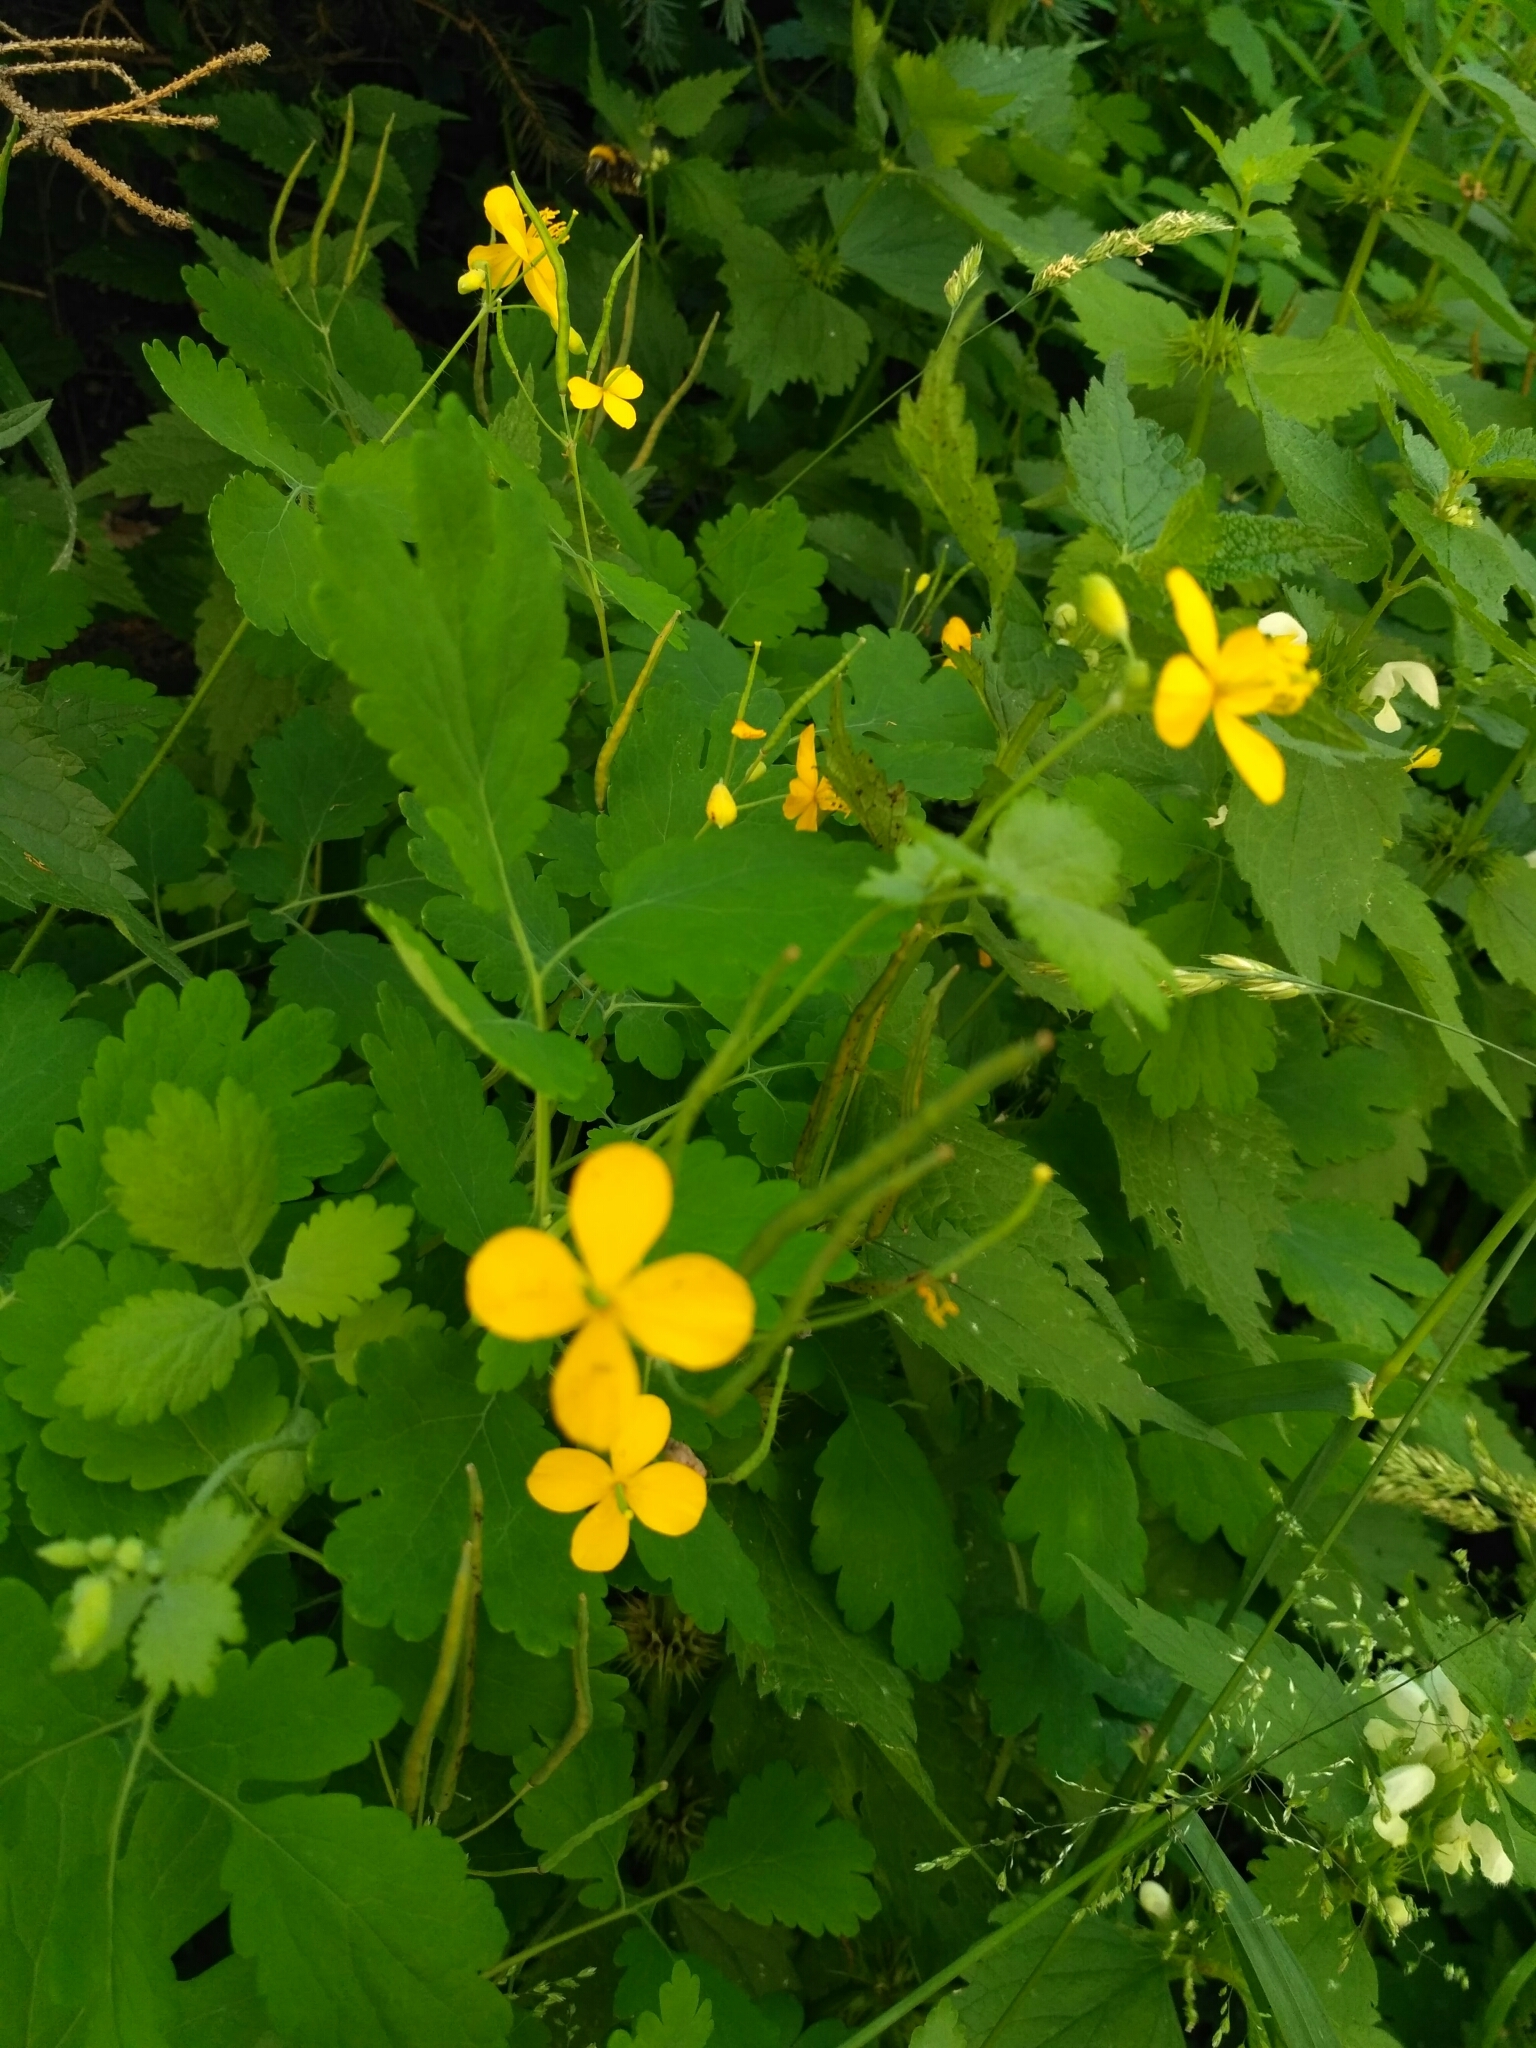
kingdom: Plantae
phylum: Tracheophyta
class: Magnoliopsida
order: Ranunculales
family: Papaveraceae
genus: Chelidonium
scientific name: Chelidonium majus
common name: Greater celandine
